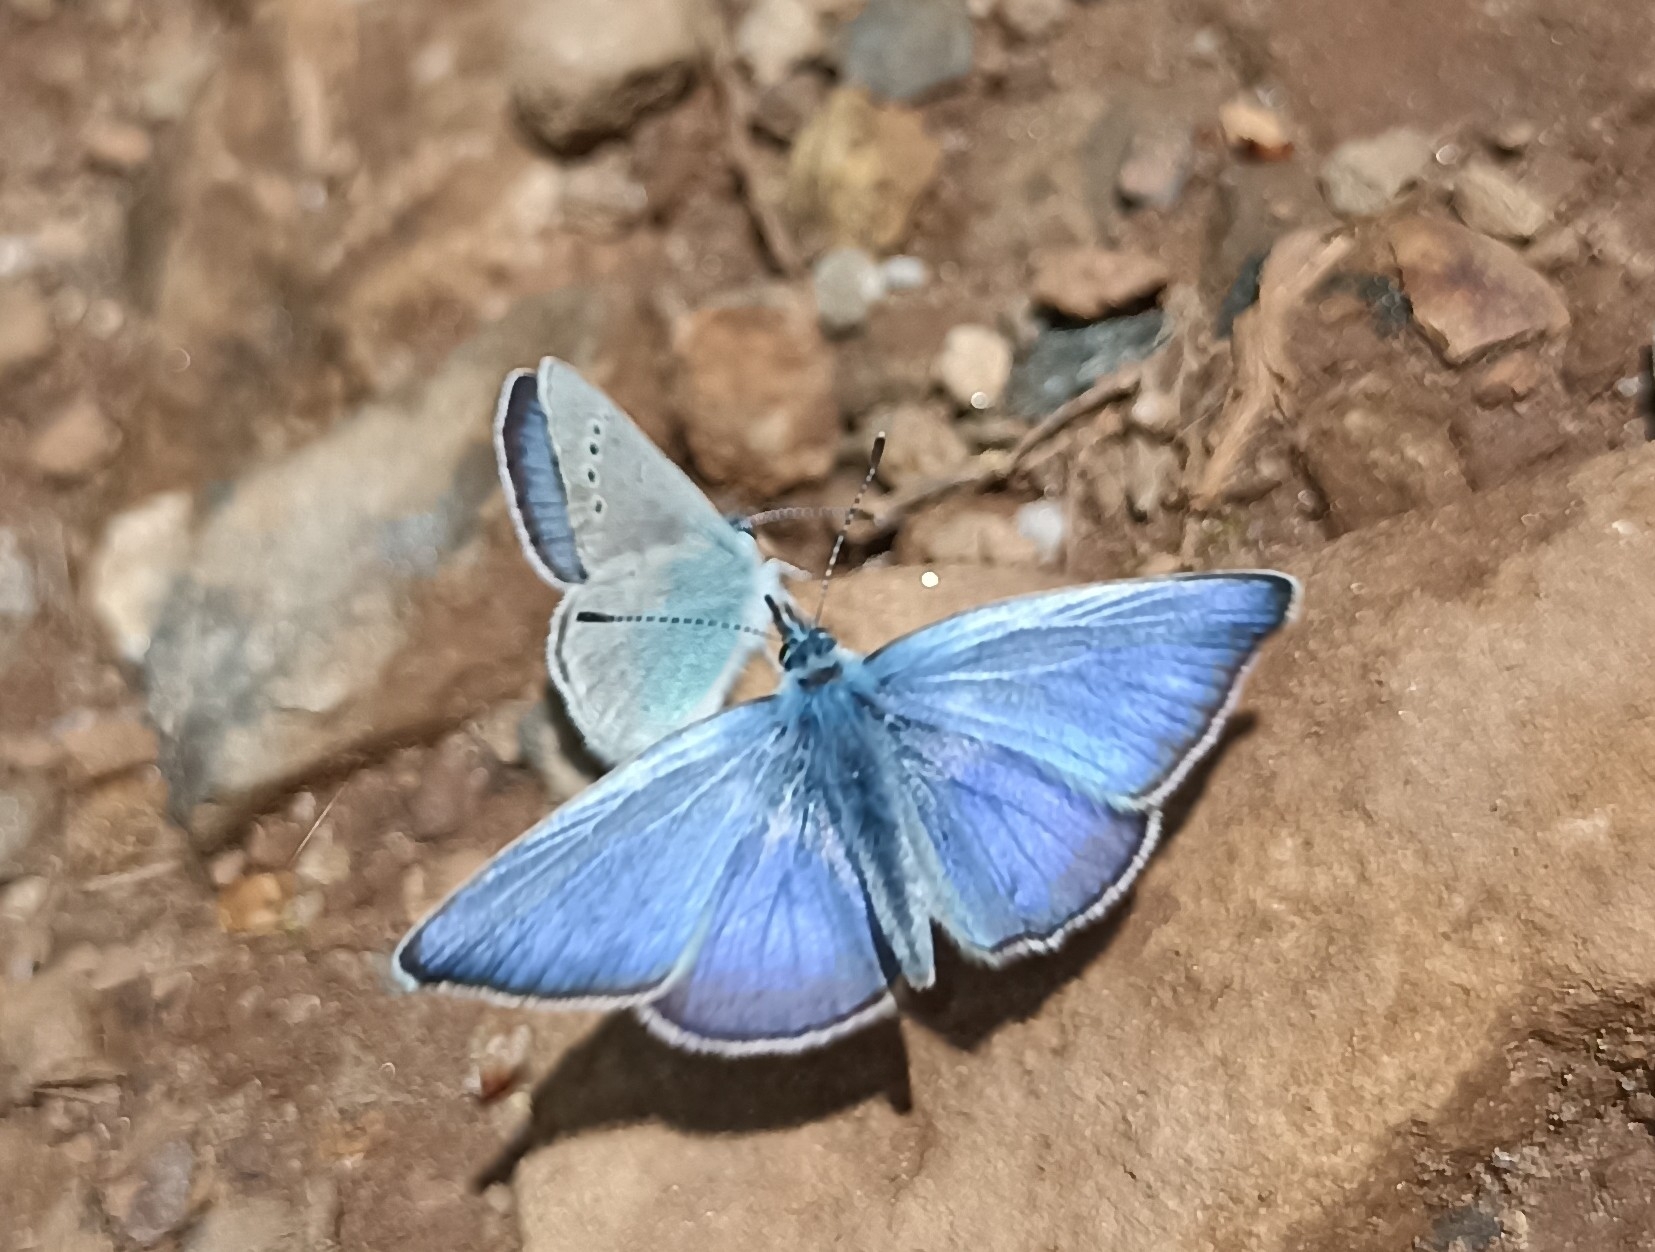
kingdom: Animalia
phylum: Arthropoda
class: Insecta
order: Lepidoptera
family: Lycaenidae
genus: Glaucopsyche
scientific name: Glaucopsyche alexis
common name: Green-underside blue
